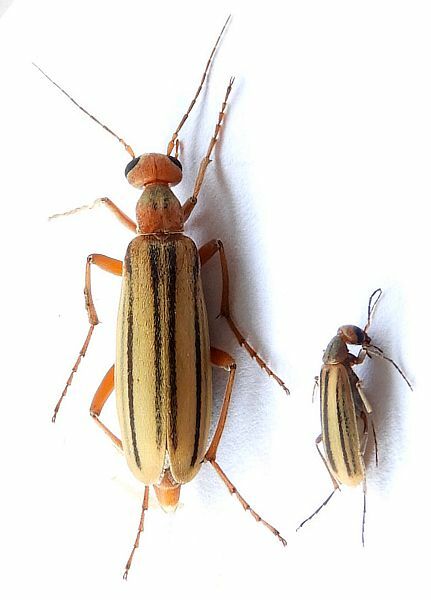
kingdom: Animalia
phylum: Arthropoda
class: Insecta
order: Coleoptera
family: Meloidae
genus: Epicauta
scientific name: Epicauta abadona
